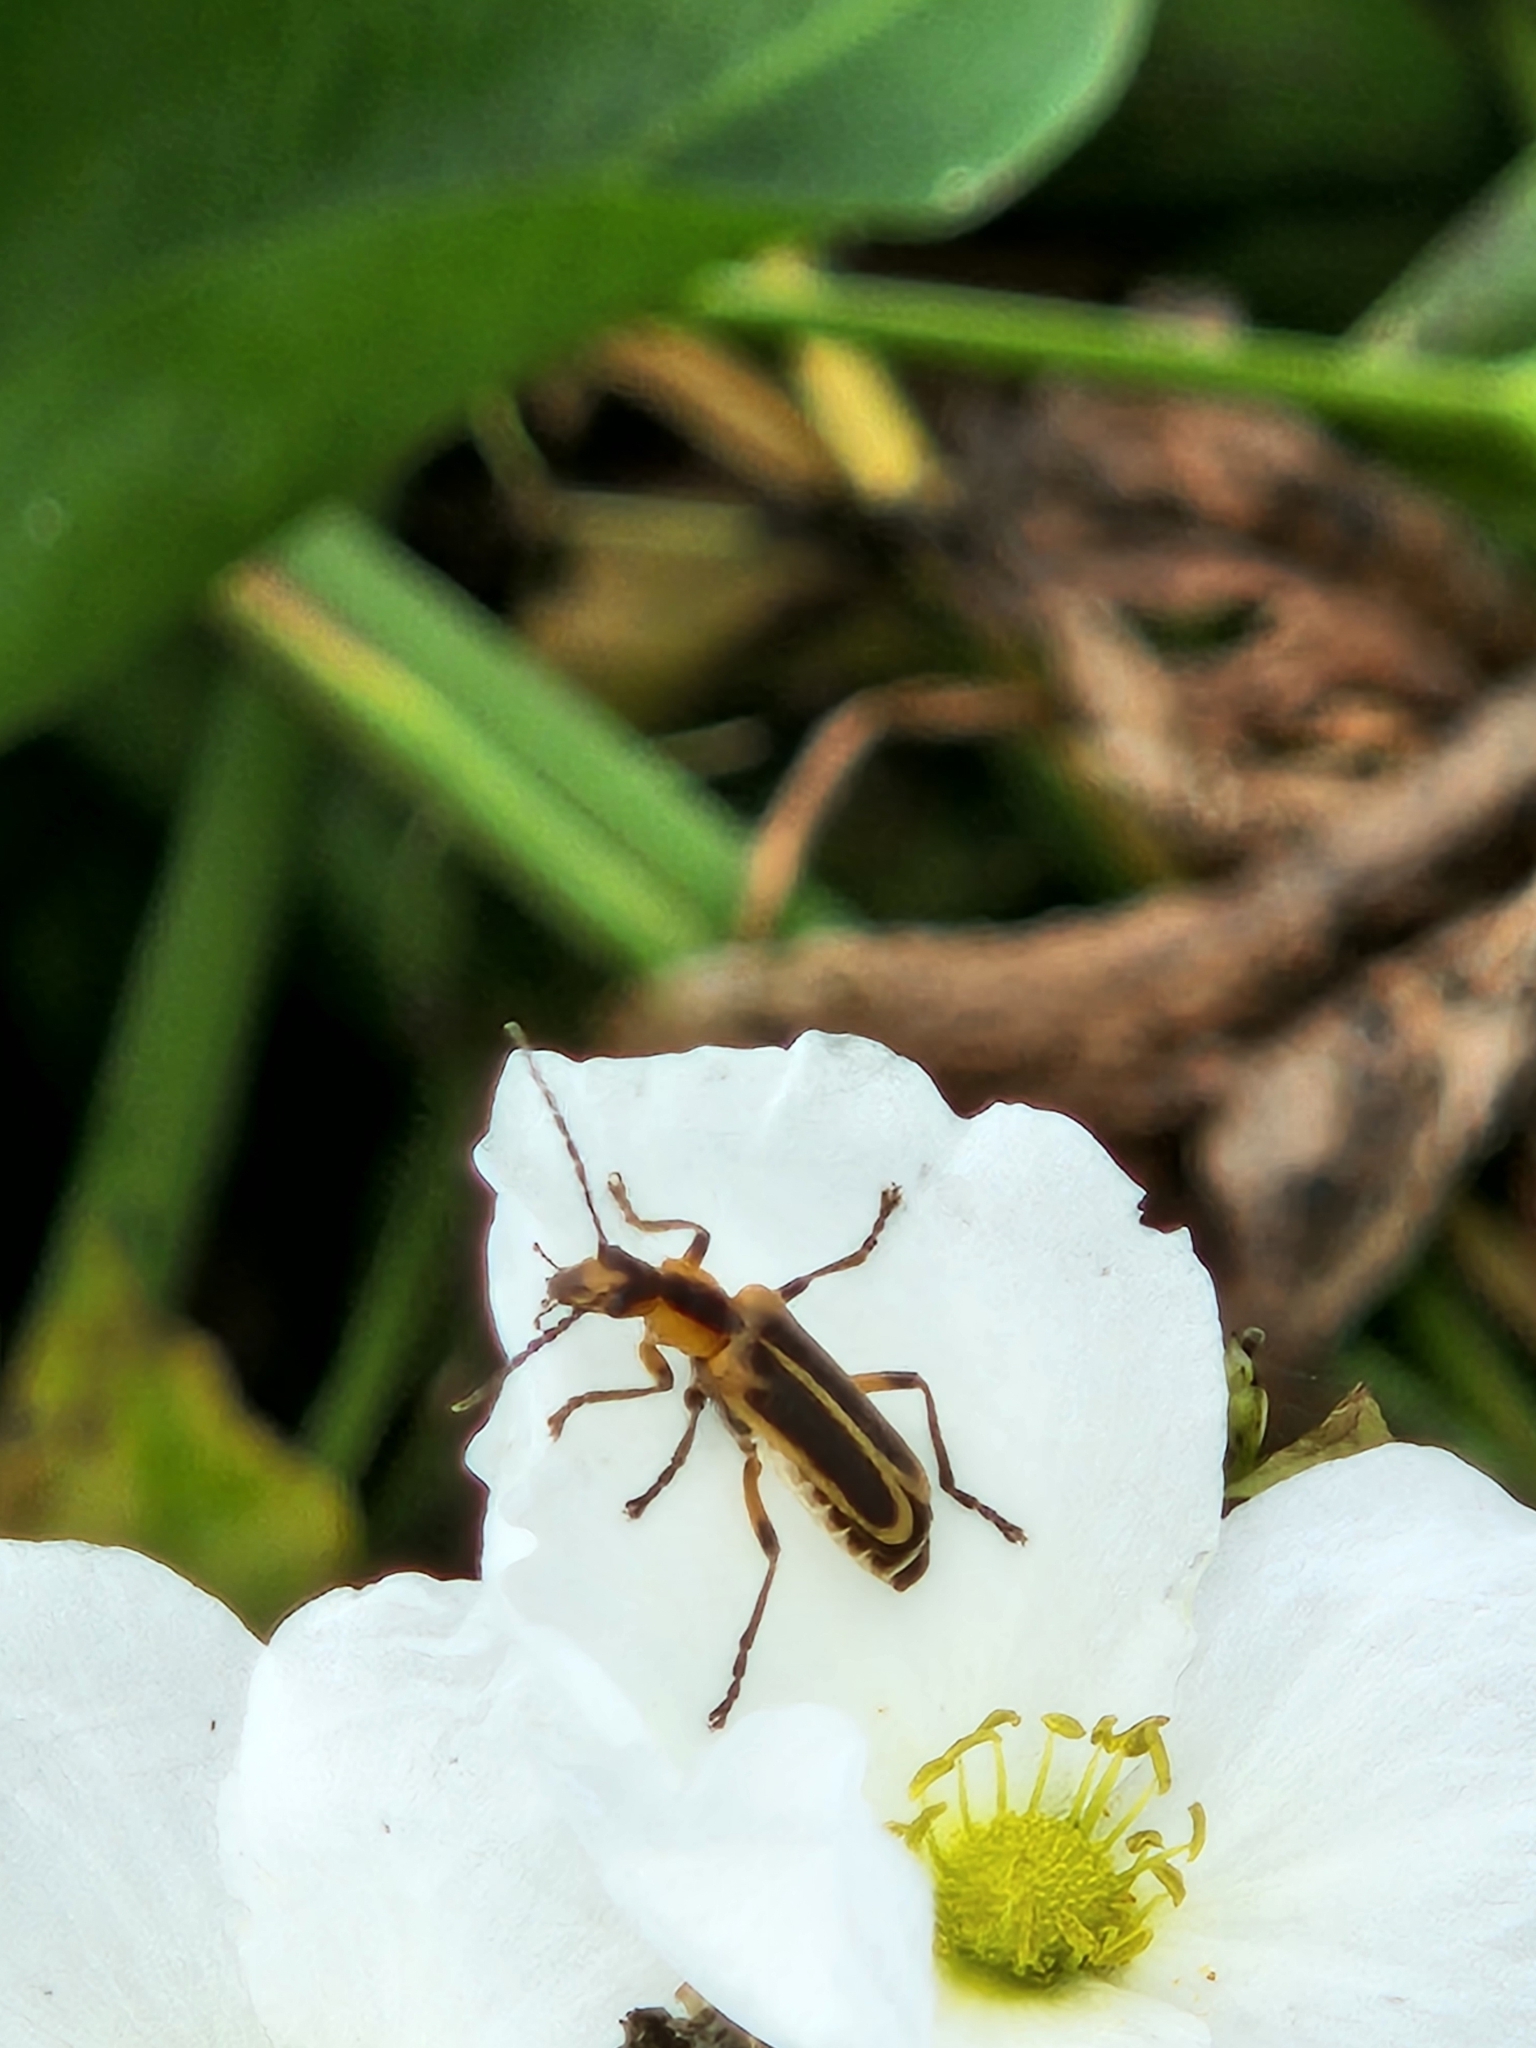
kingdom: Animalia
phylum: Arthropoda
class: Insecta
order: Coleoptera
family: Cantharidae
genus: Chauliognathus
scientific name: Chauliognathus marginatus
